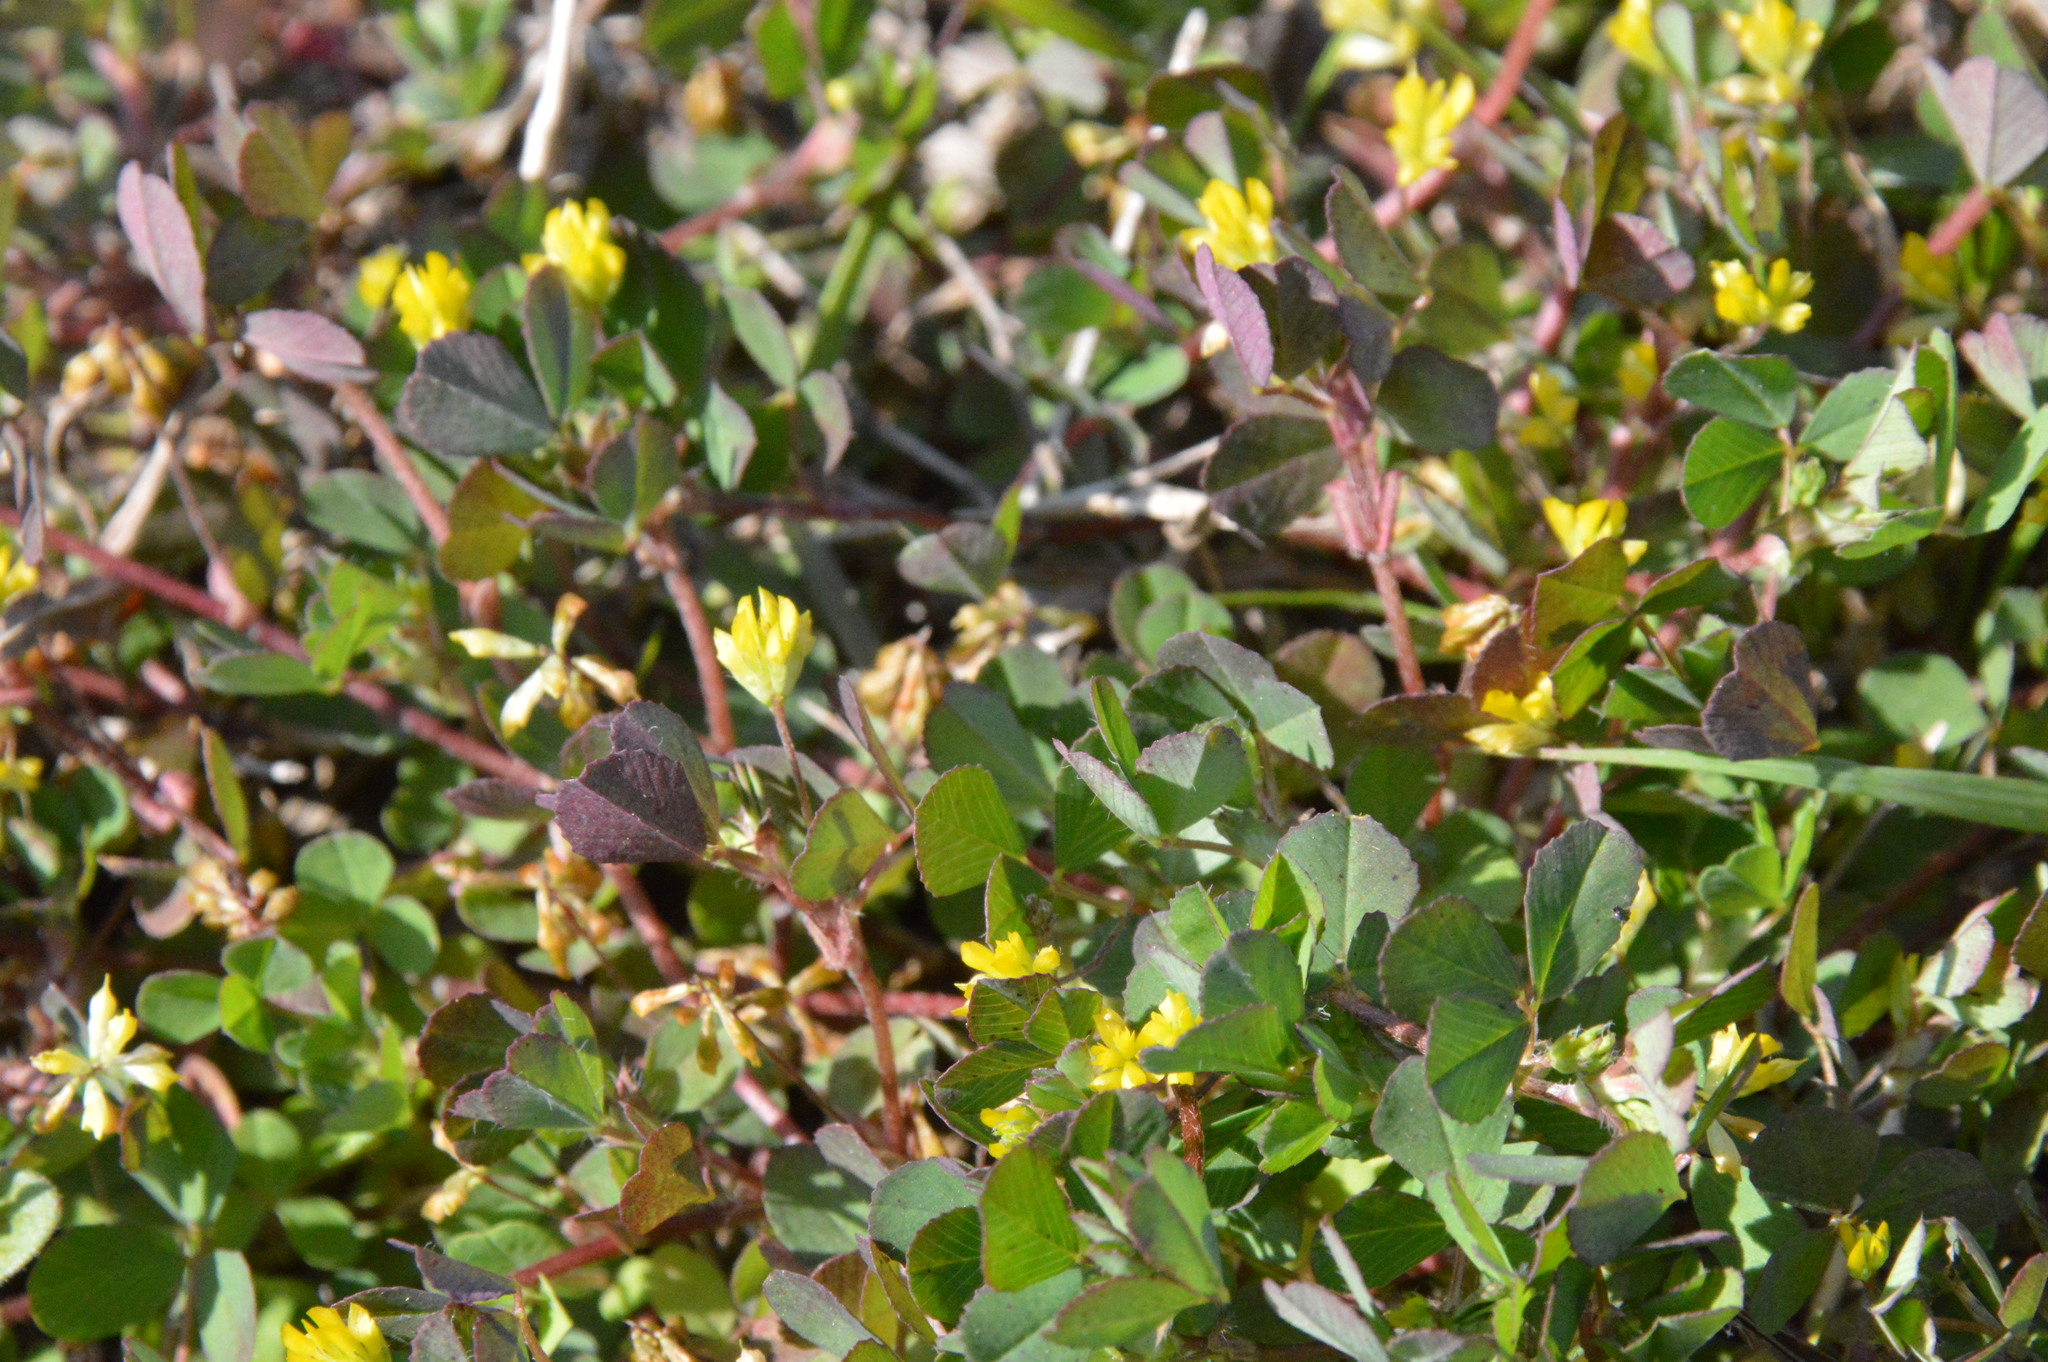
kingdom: Plantae
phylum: Tracheophyta
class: Magnoliopsida
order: Fabales
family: Fabaceae
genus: Trifolium
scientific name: Trifolium dubium
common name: Suckling clover
